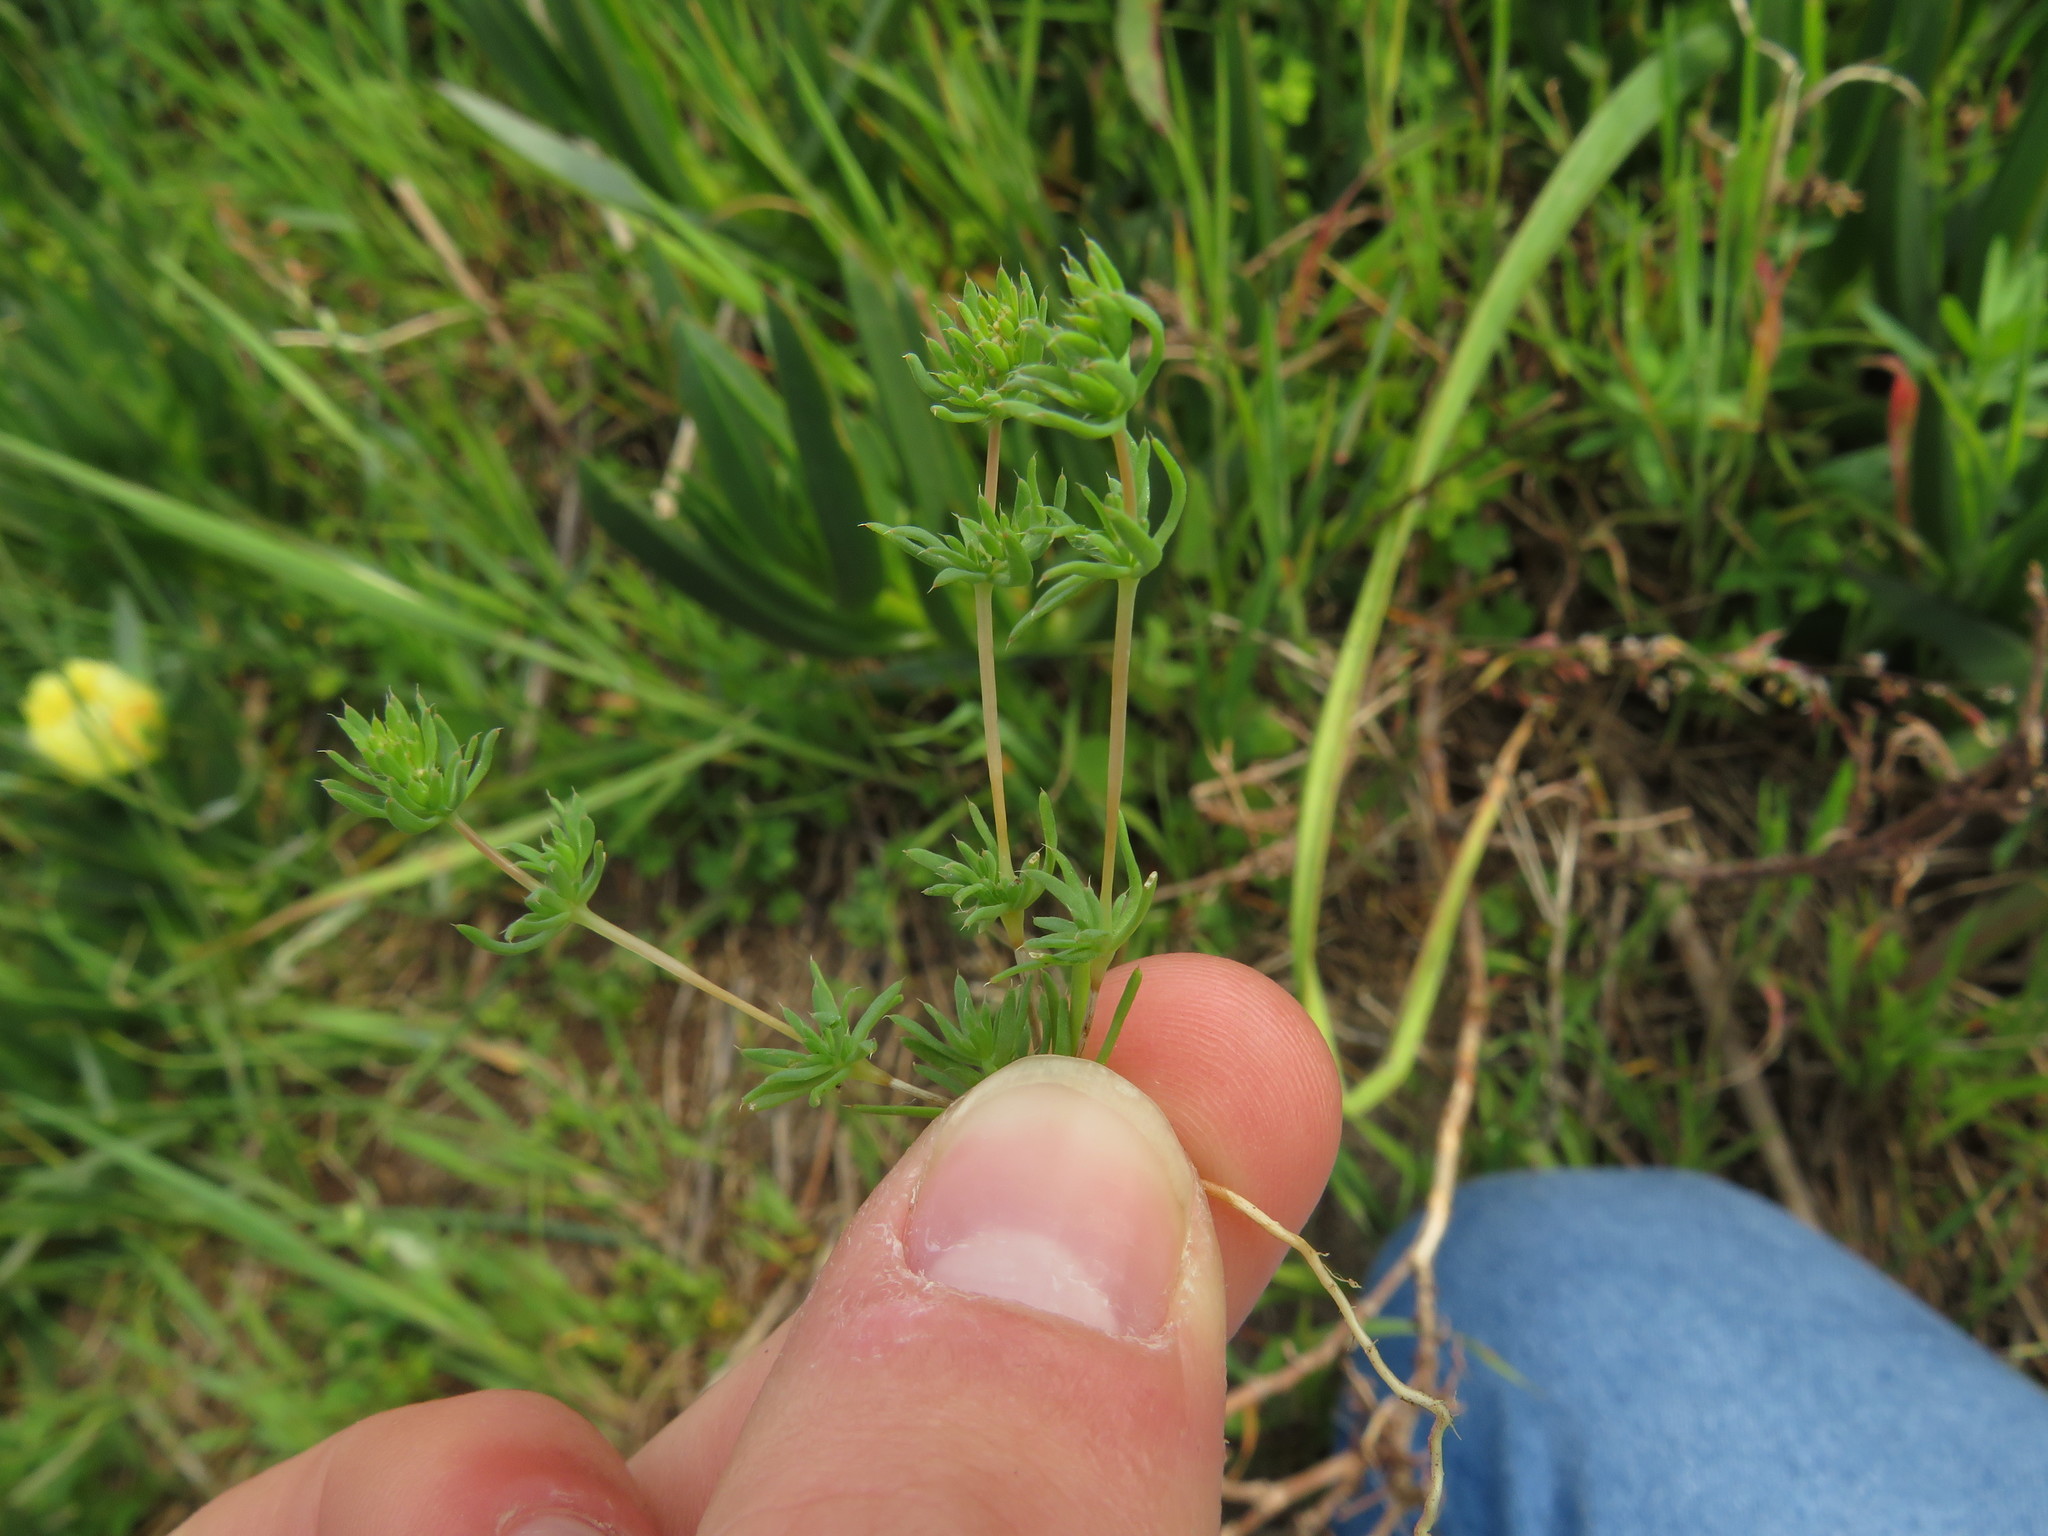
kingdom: Plantae
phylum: Tracheophyta
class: Magnoliopsida
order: Caryophyllales
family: Molluginaceae
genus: Adenogramma
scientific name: Adenogramma glomerata
